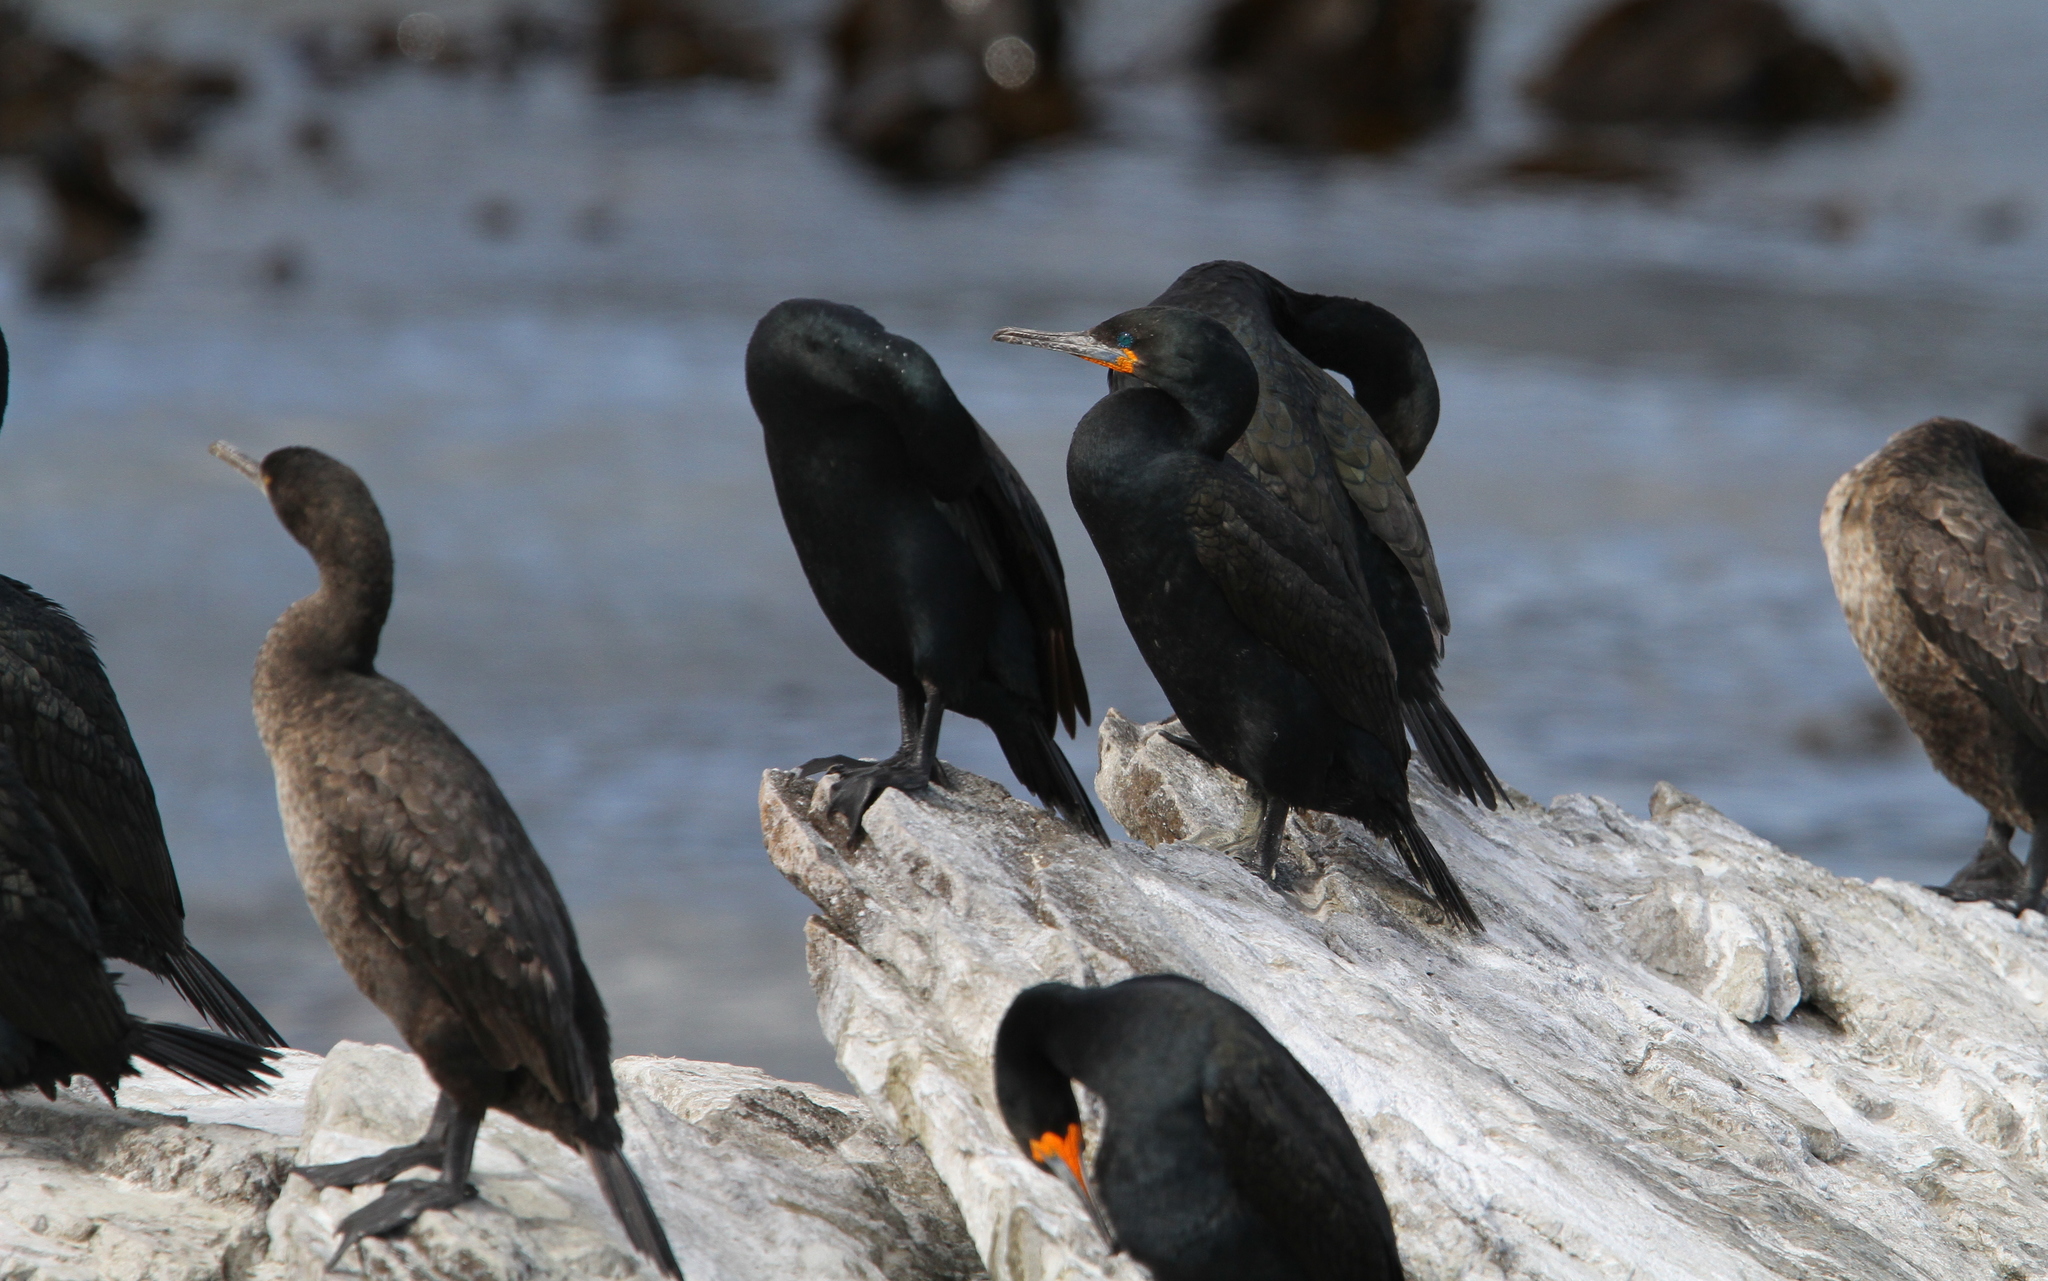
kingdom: Animalia
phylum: Chordata
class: Aves
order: Suliformes
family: Phalacrocoracidae
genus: Phalacrocorax
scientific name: Phalacrocorax capensis
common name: Cape cormorant
